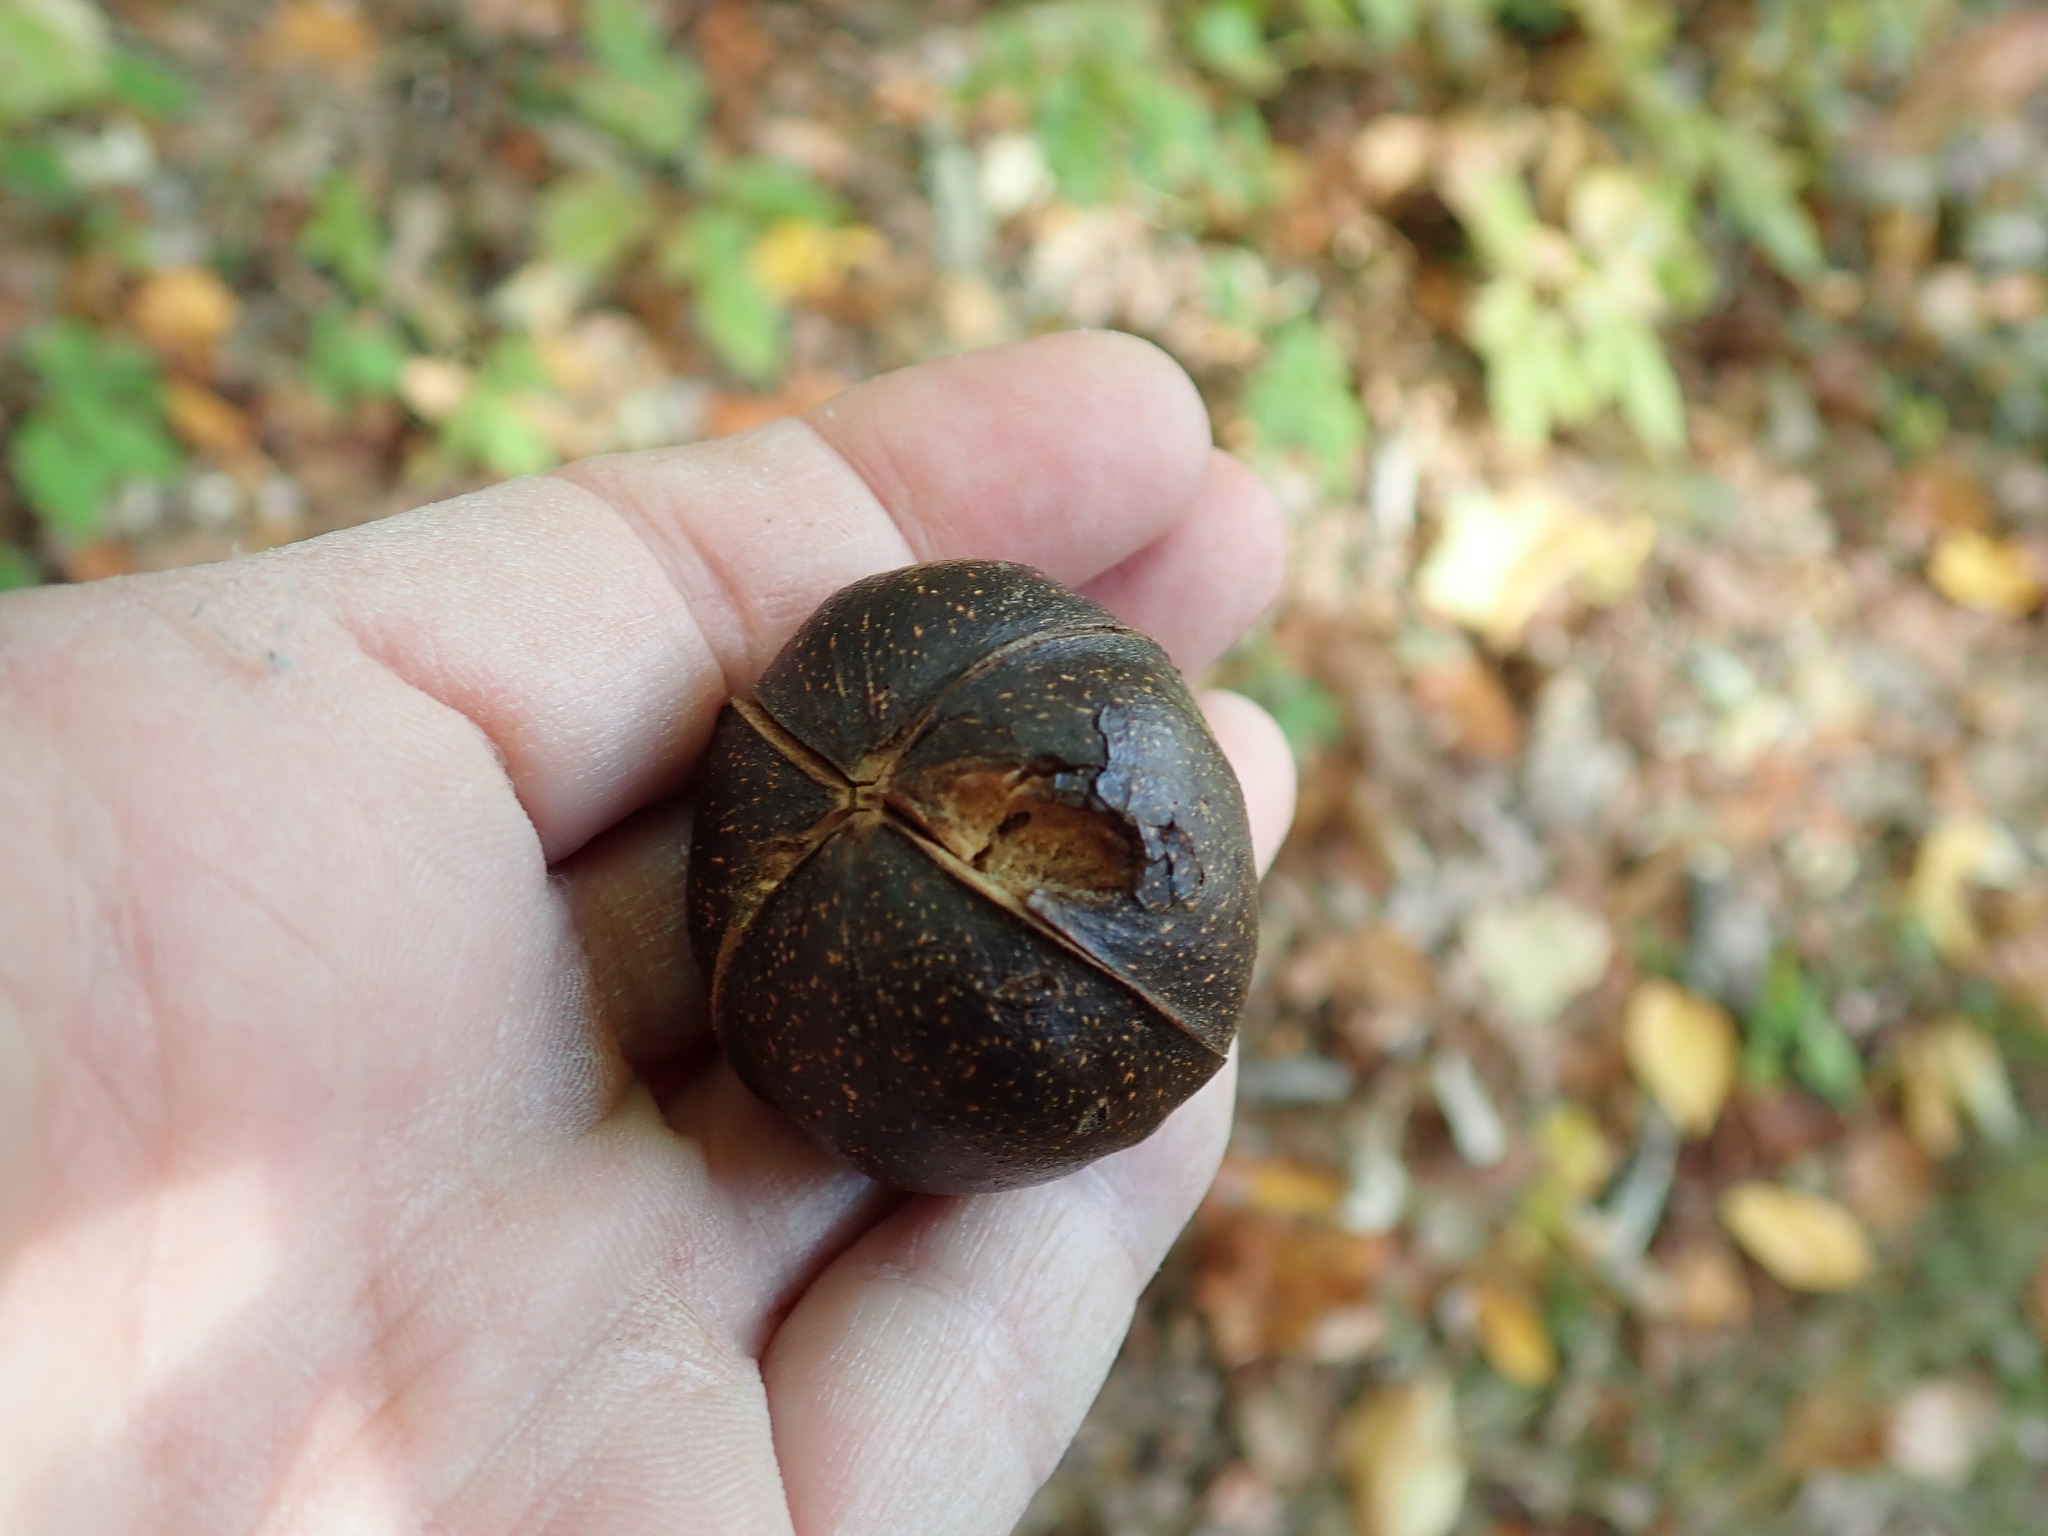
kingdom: Plantae
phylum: Tracheophyta
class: Magnoliopsida
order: Fagales
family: Juglandaceae
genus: Carya
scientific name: Carya ovata
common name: Shagbark hickory
